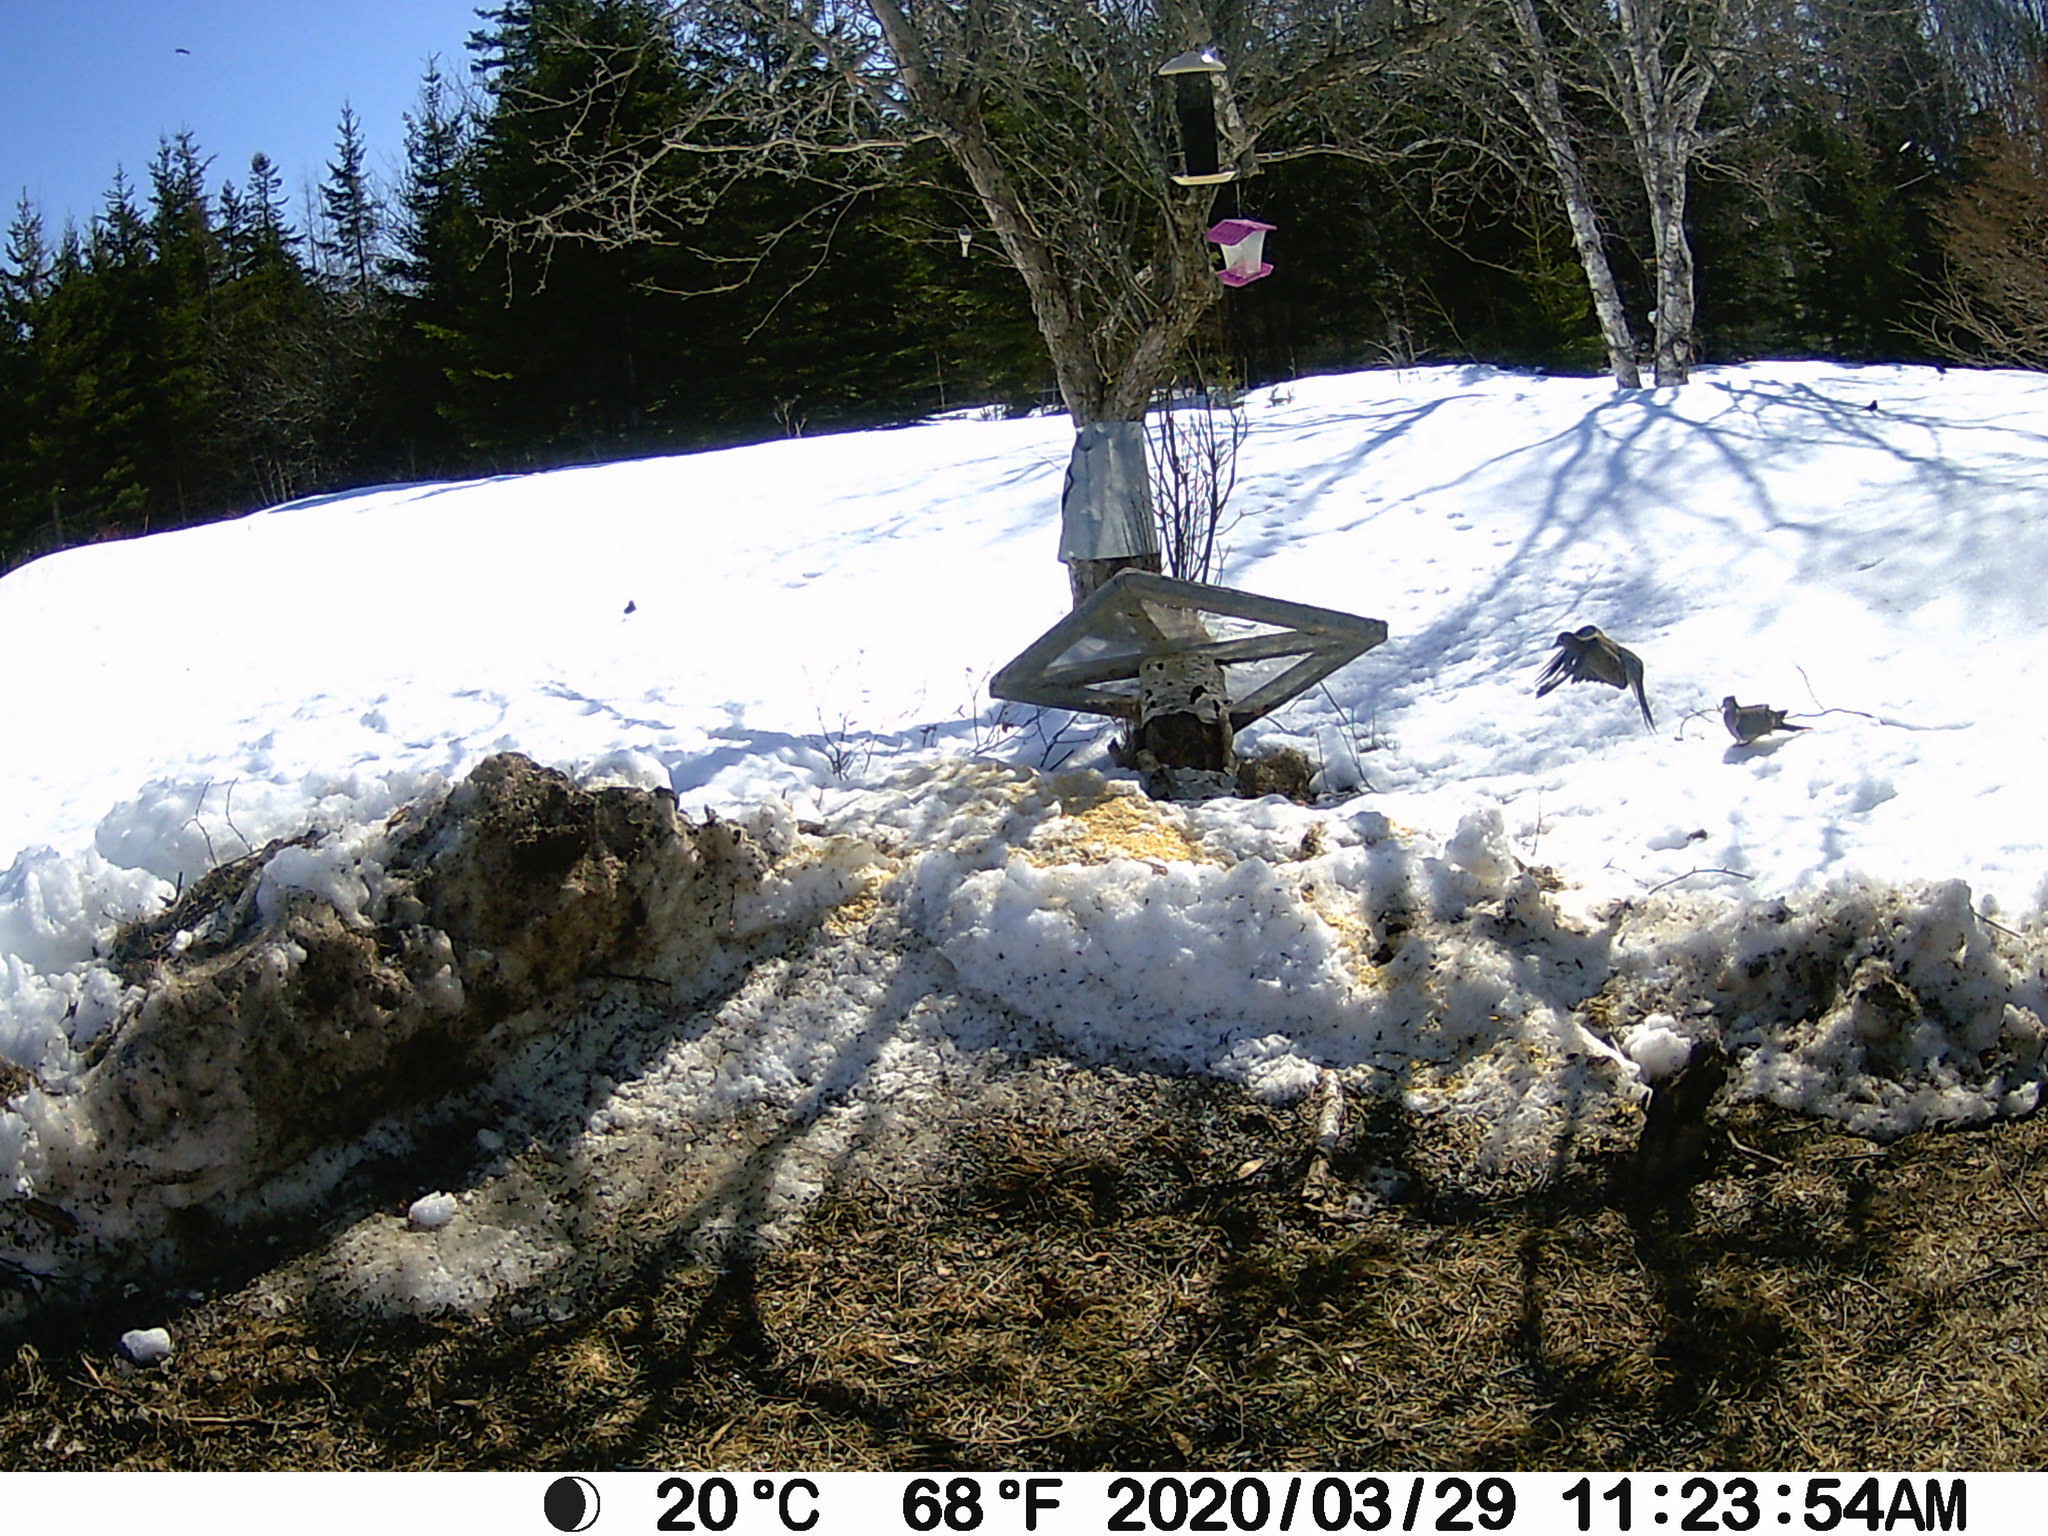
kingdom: Animalia
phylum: Chordata
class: Aves
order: Columbiformes
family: Columbidae
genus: Zenaida
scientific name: Zenaida macroura
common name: Mourning dove
